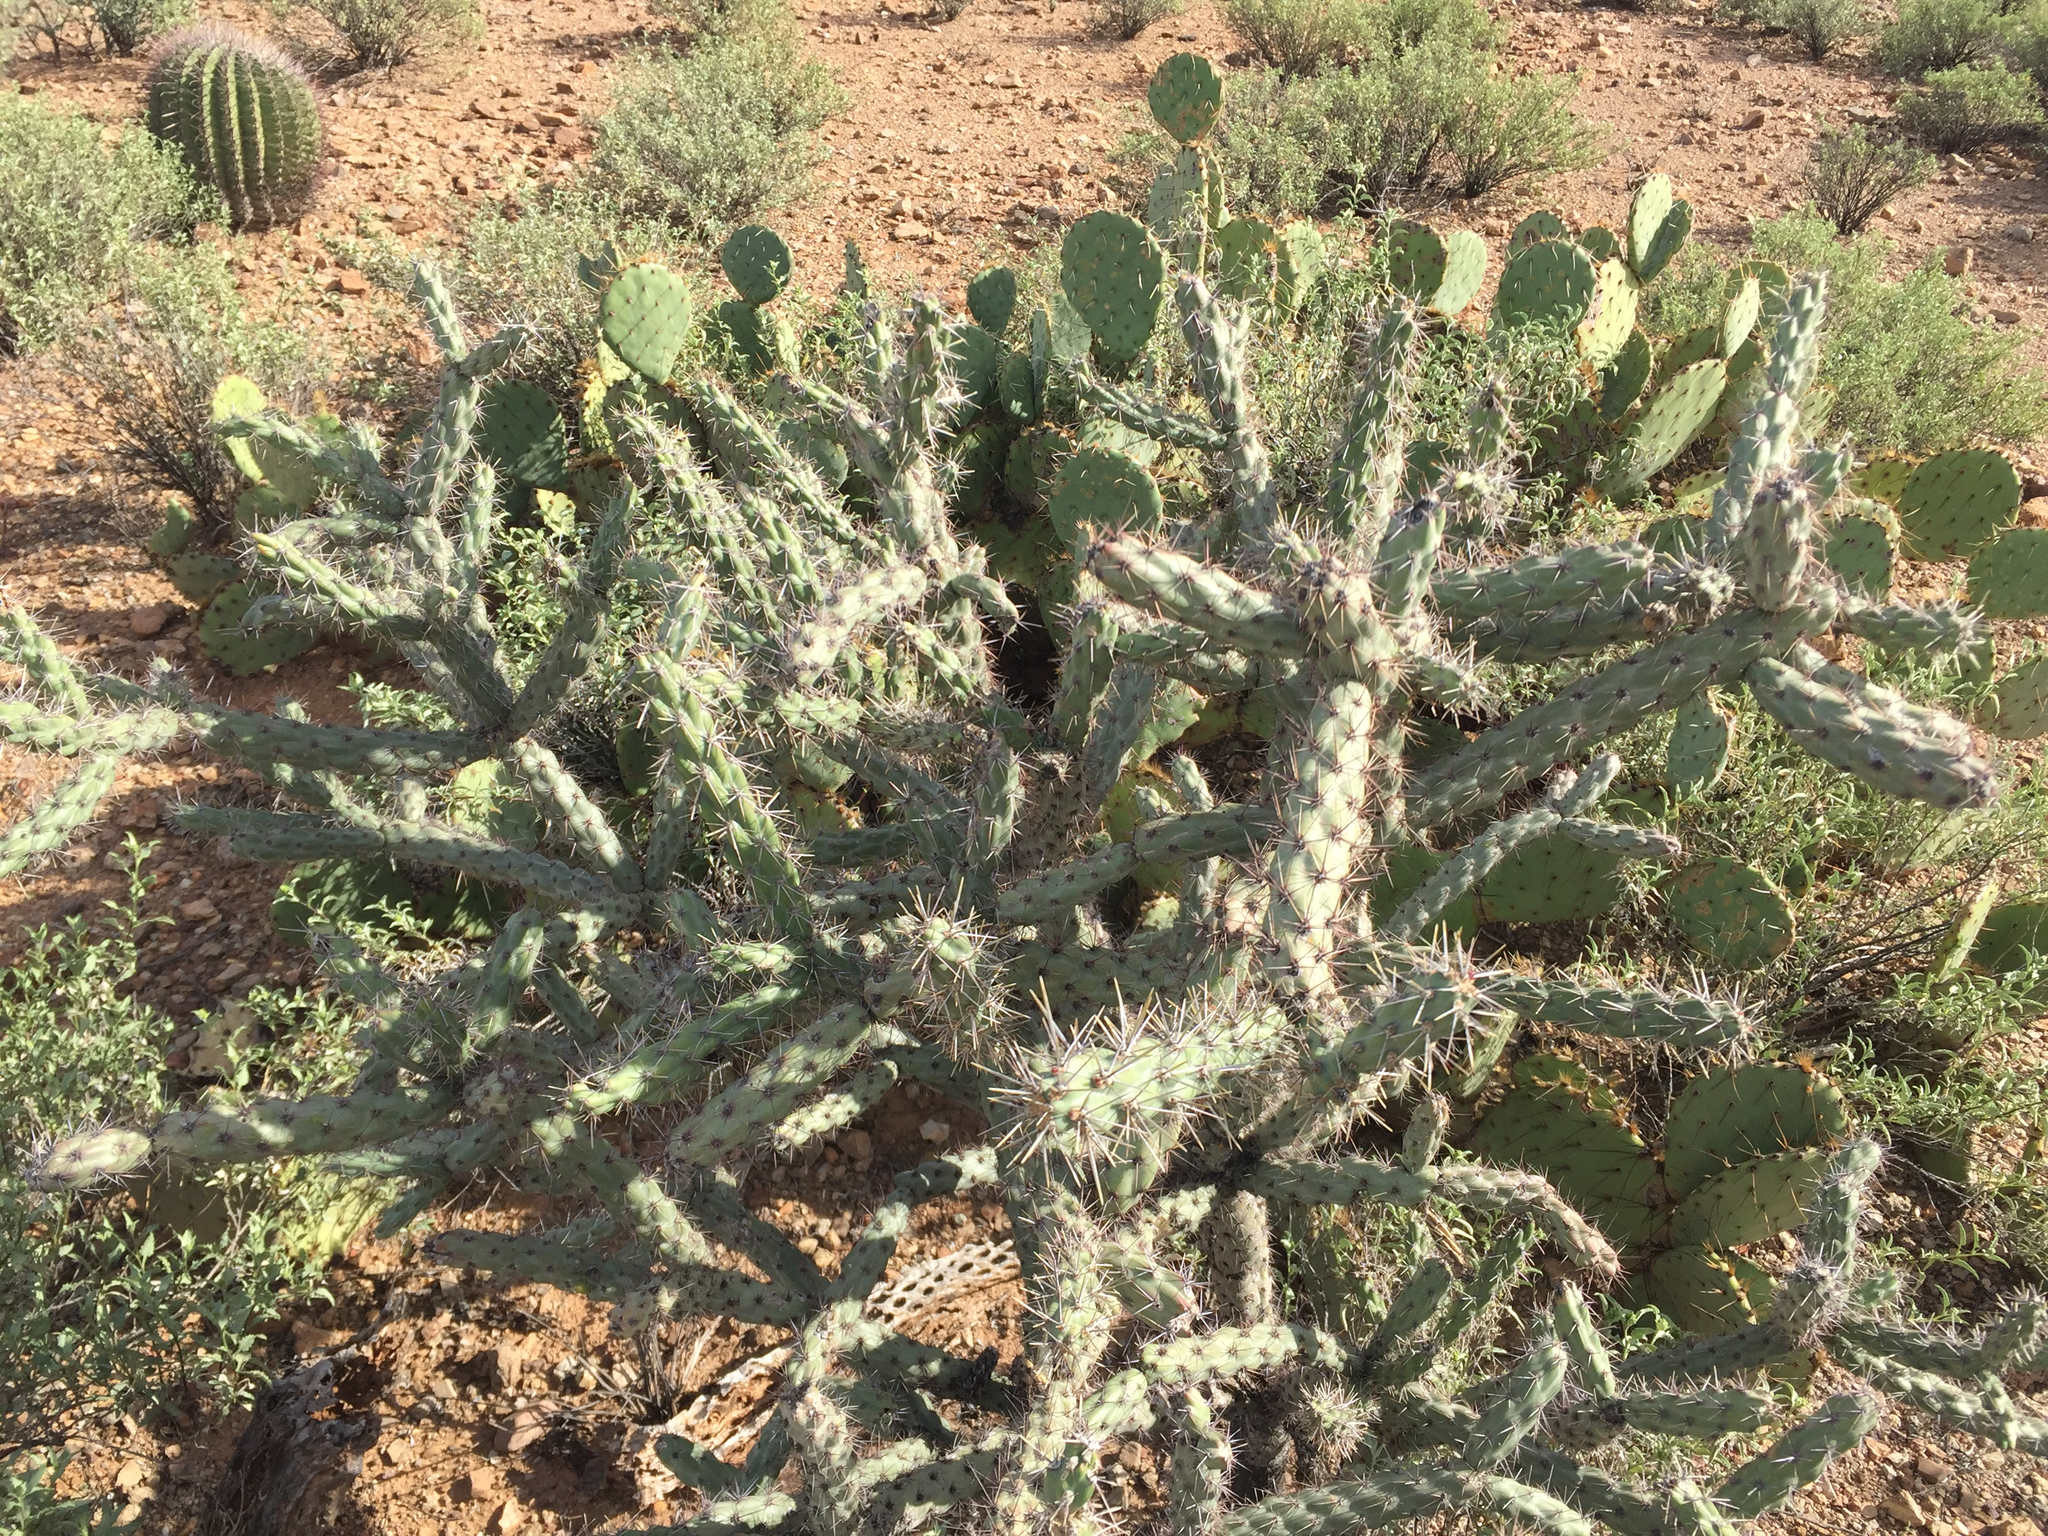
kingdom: Plantae
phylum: Tracheophyta
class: Magnoliopsida
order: Caryophyllales
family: Cactaceae
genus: Cylindropuntia
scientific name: Cylindropuntia acanthocarpa
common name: Buckhorn cholla
